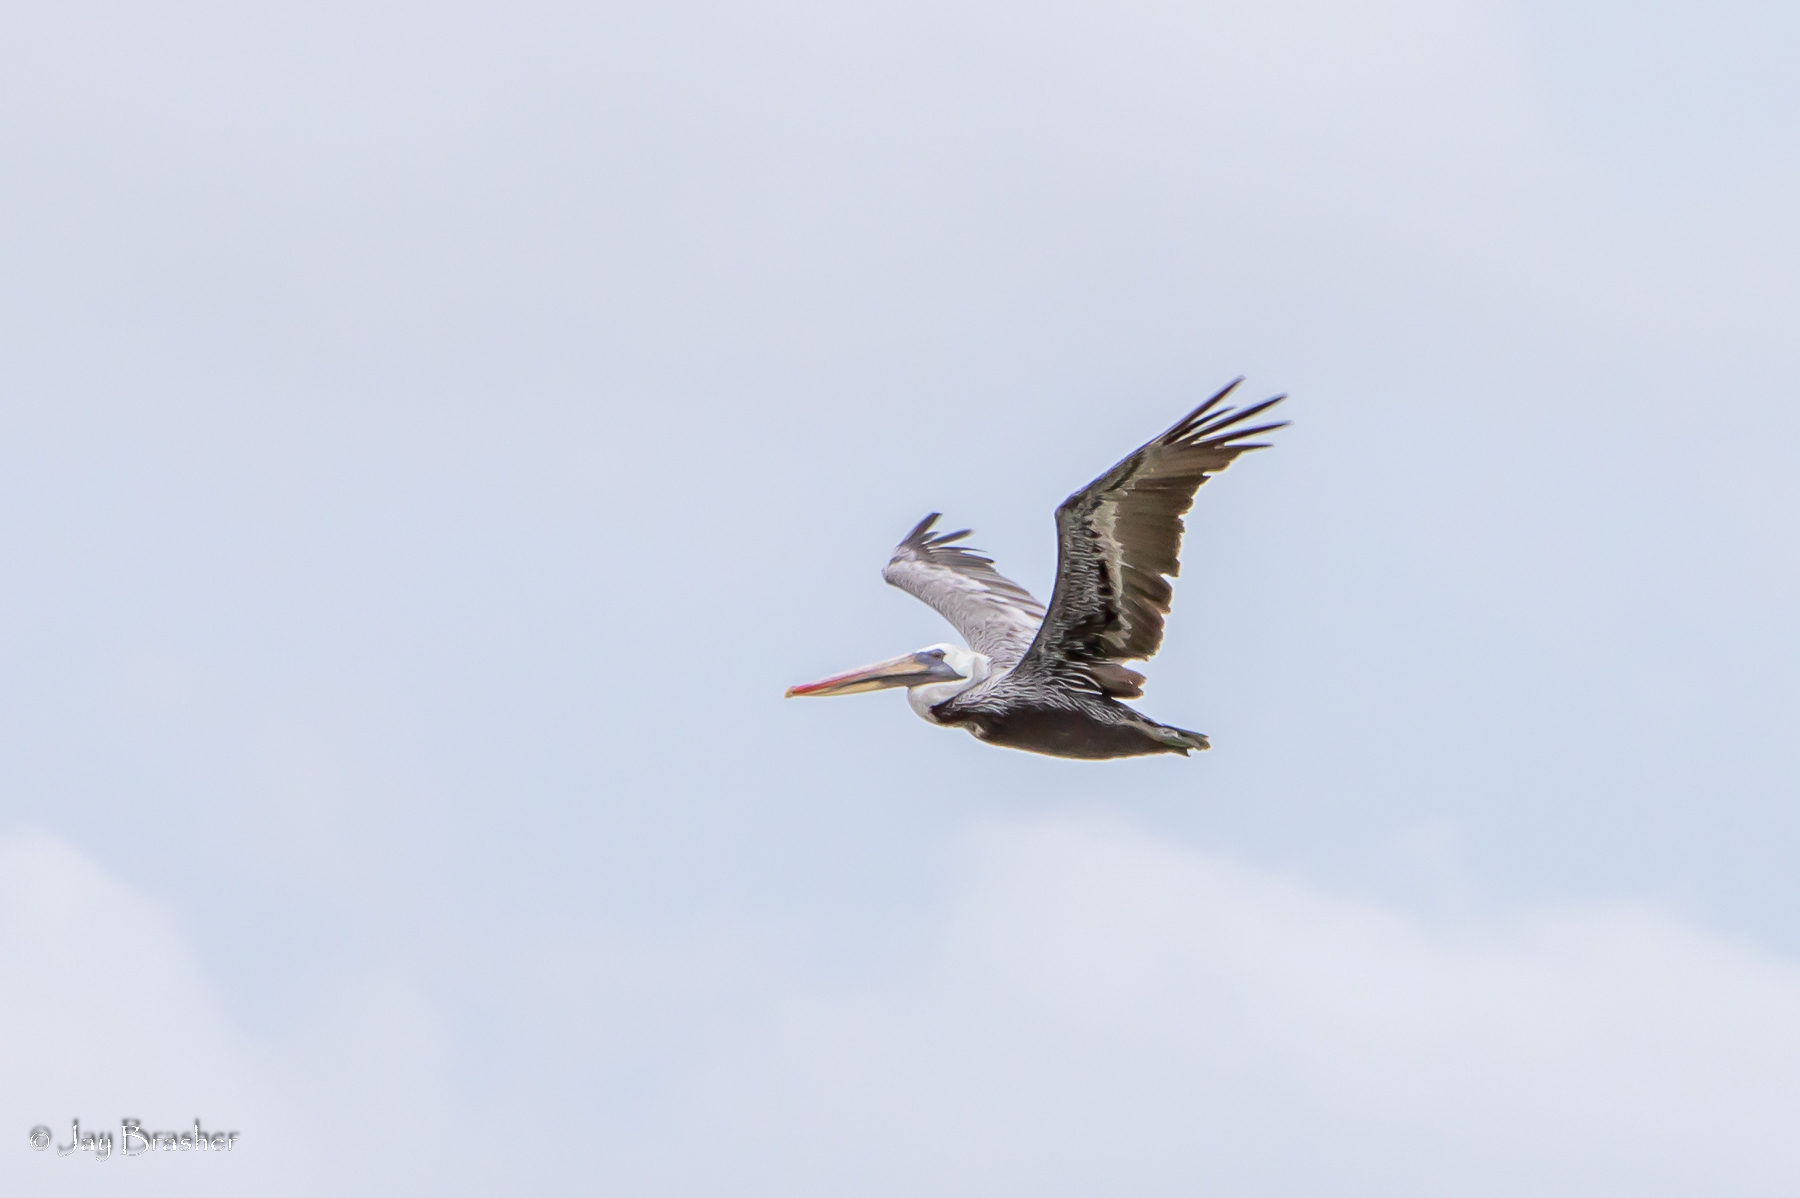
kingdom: Animalia
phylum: Chordata
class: Aves
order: Pelecaniformes
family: Pelecanidae
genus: Pelecanus
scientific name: Pelecanus occidentalis
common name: Brown pelican
